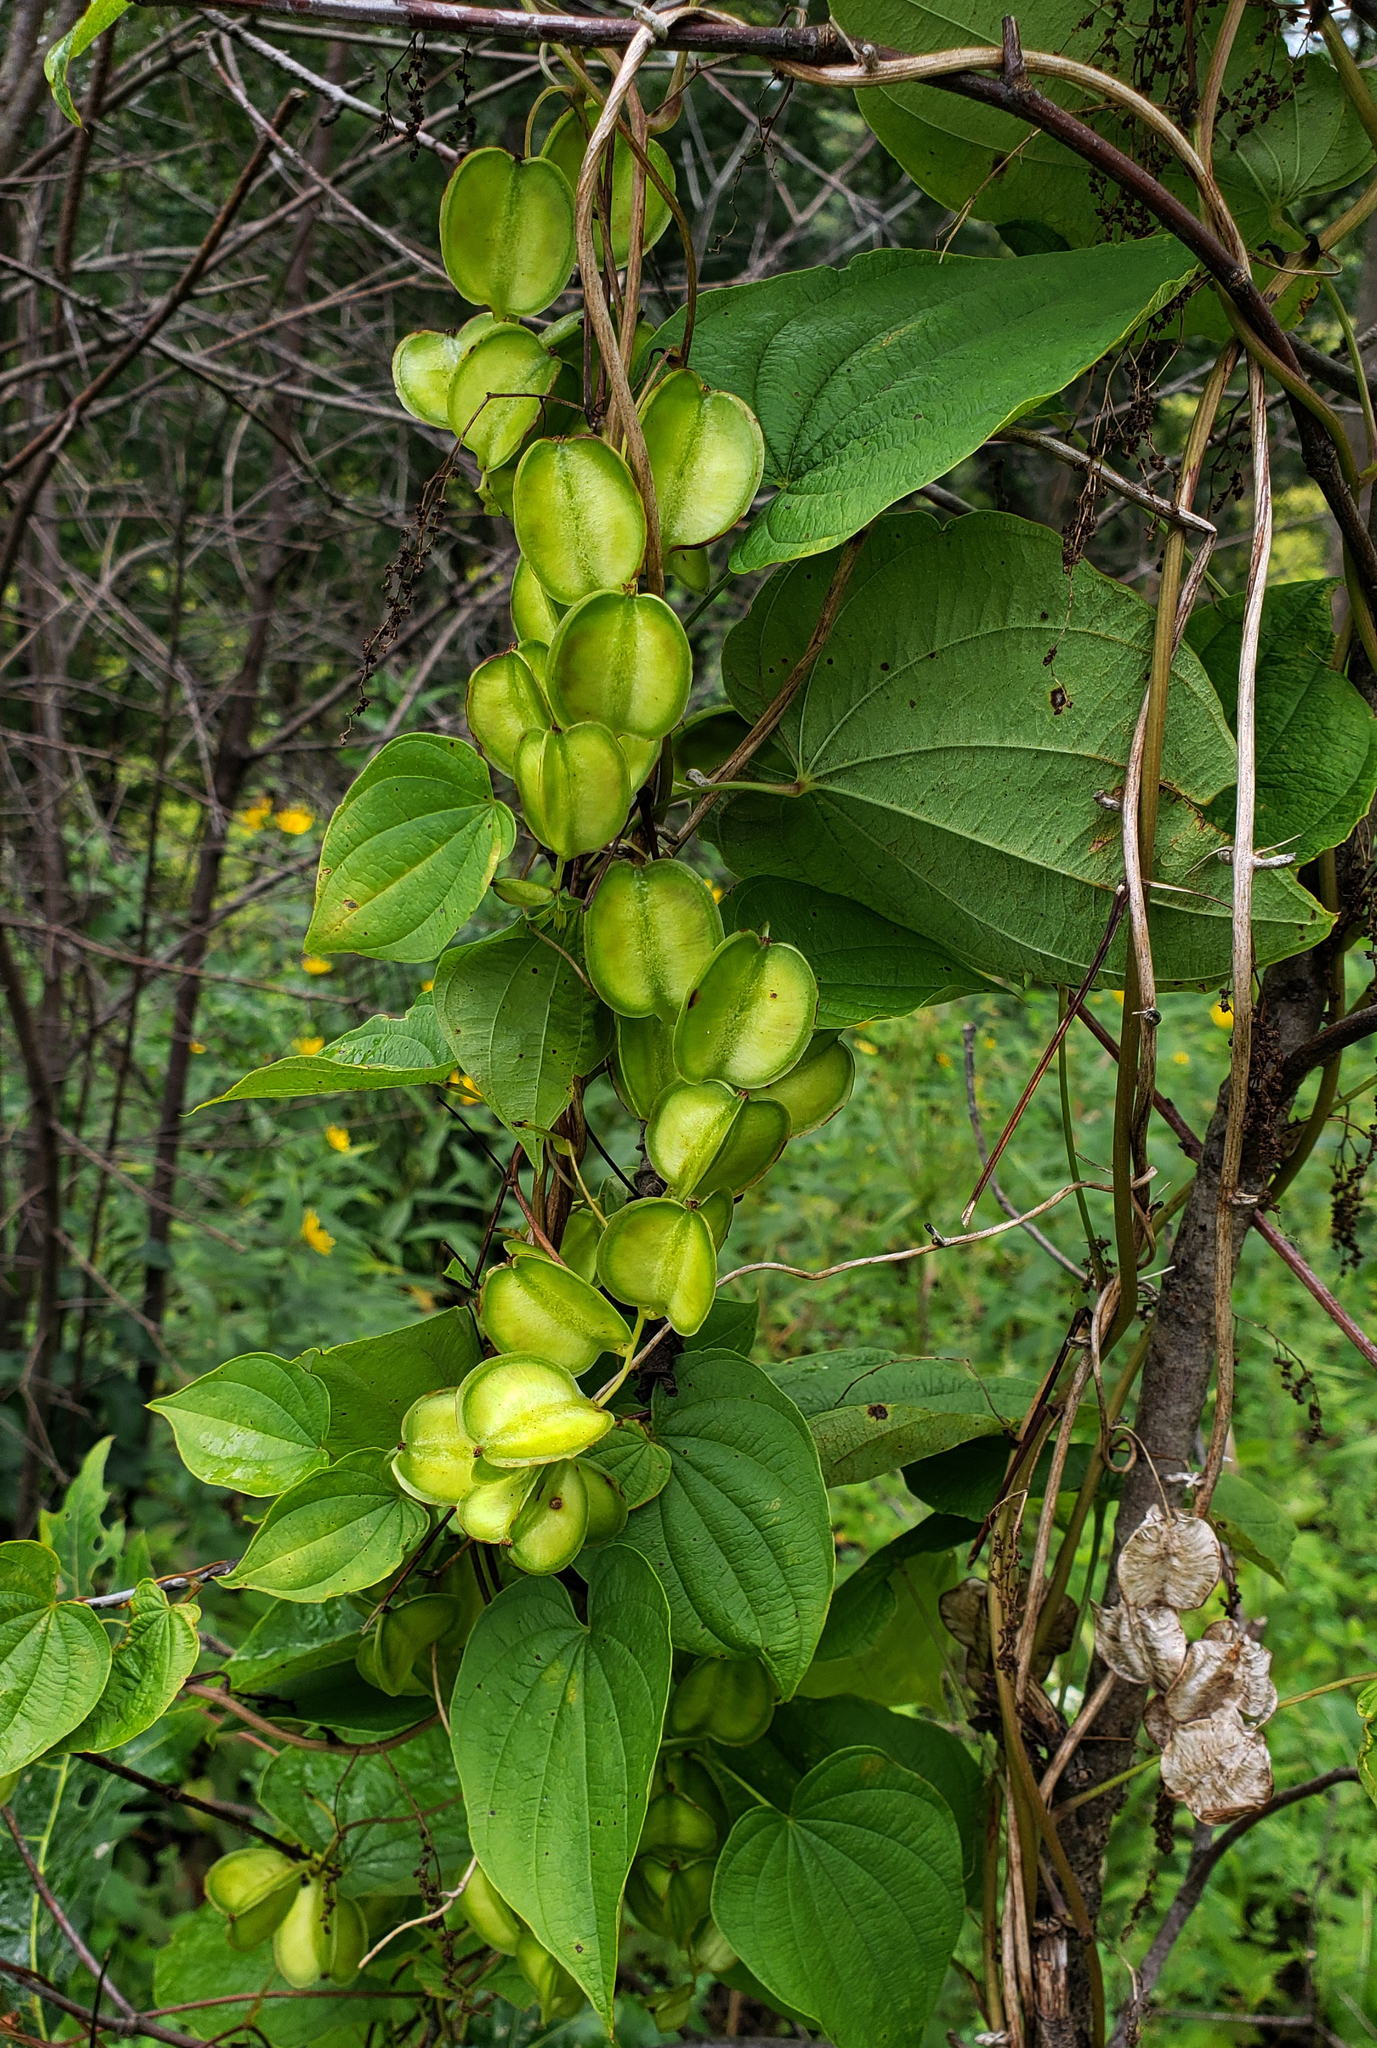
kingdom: Plantae
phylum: Tracheophyta
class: Liliopsida
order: Dioscoreales
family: Dioscoreaceae
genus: Dioscorea
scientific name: Dioscorea villosa
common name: Wild yam
